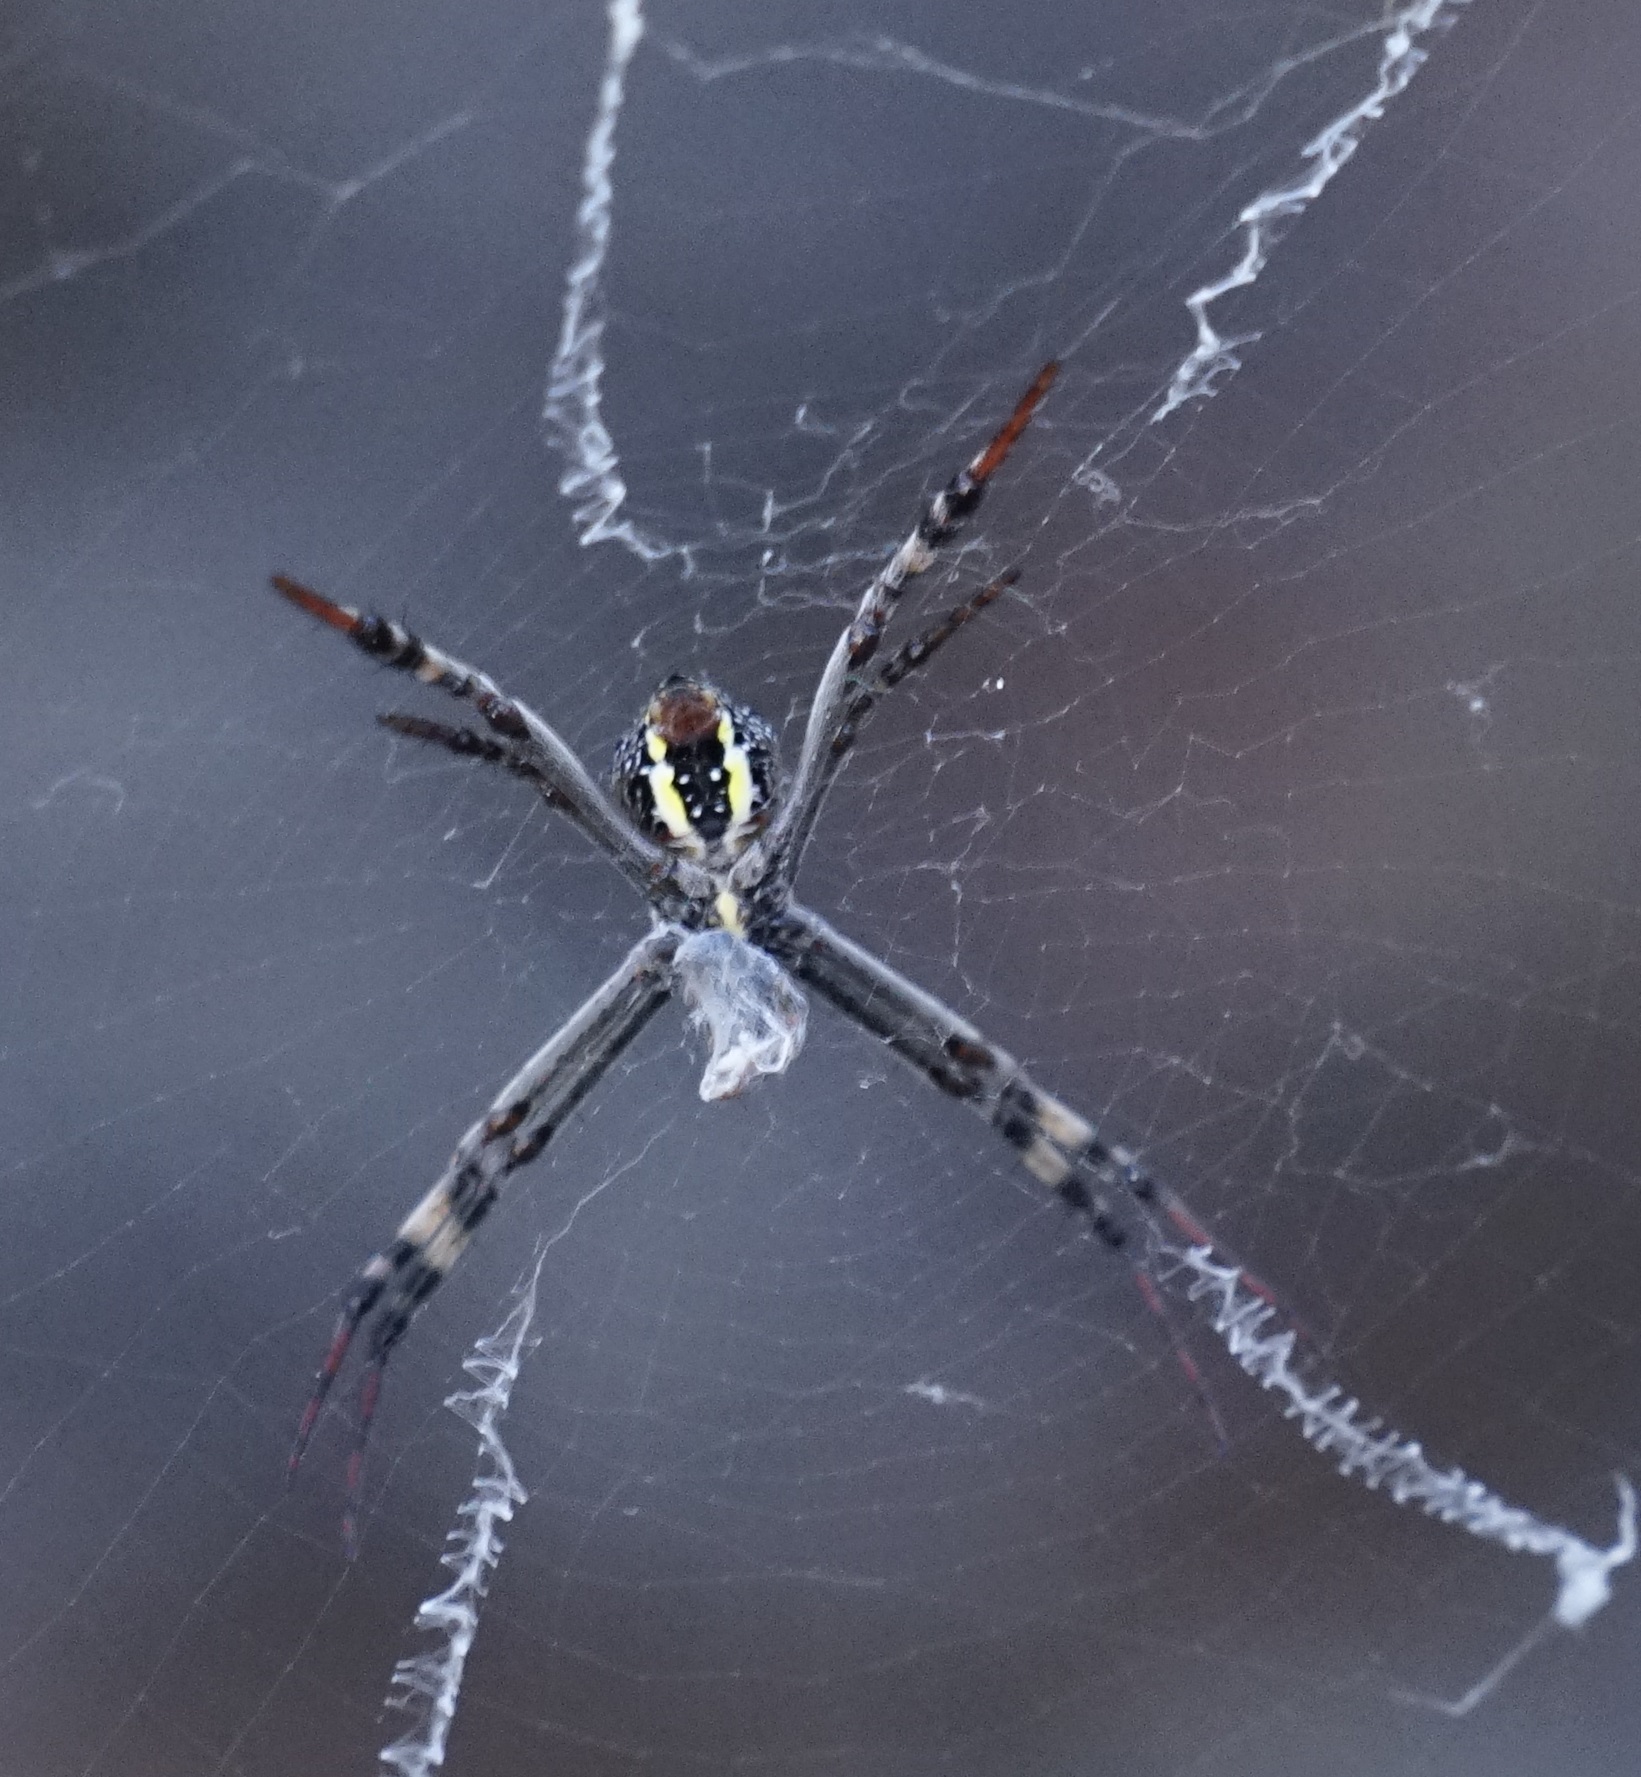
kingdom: Animalia
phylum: Arthropoda
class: Arachnida
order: Araneae
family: Araneidae
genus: Argiope
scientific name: Argiope keyserlingi
